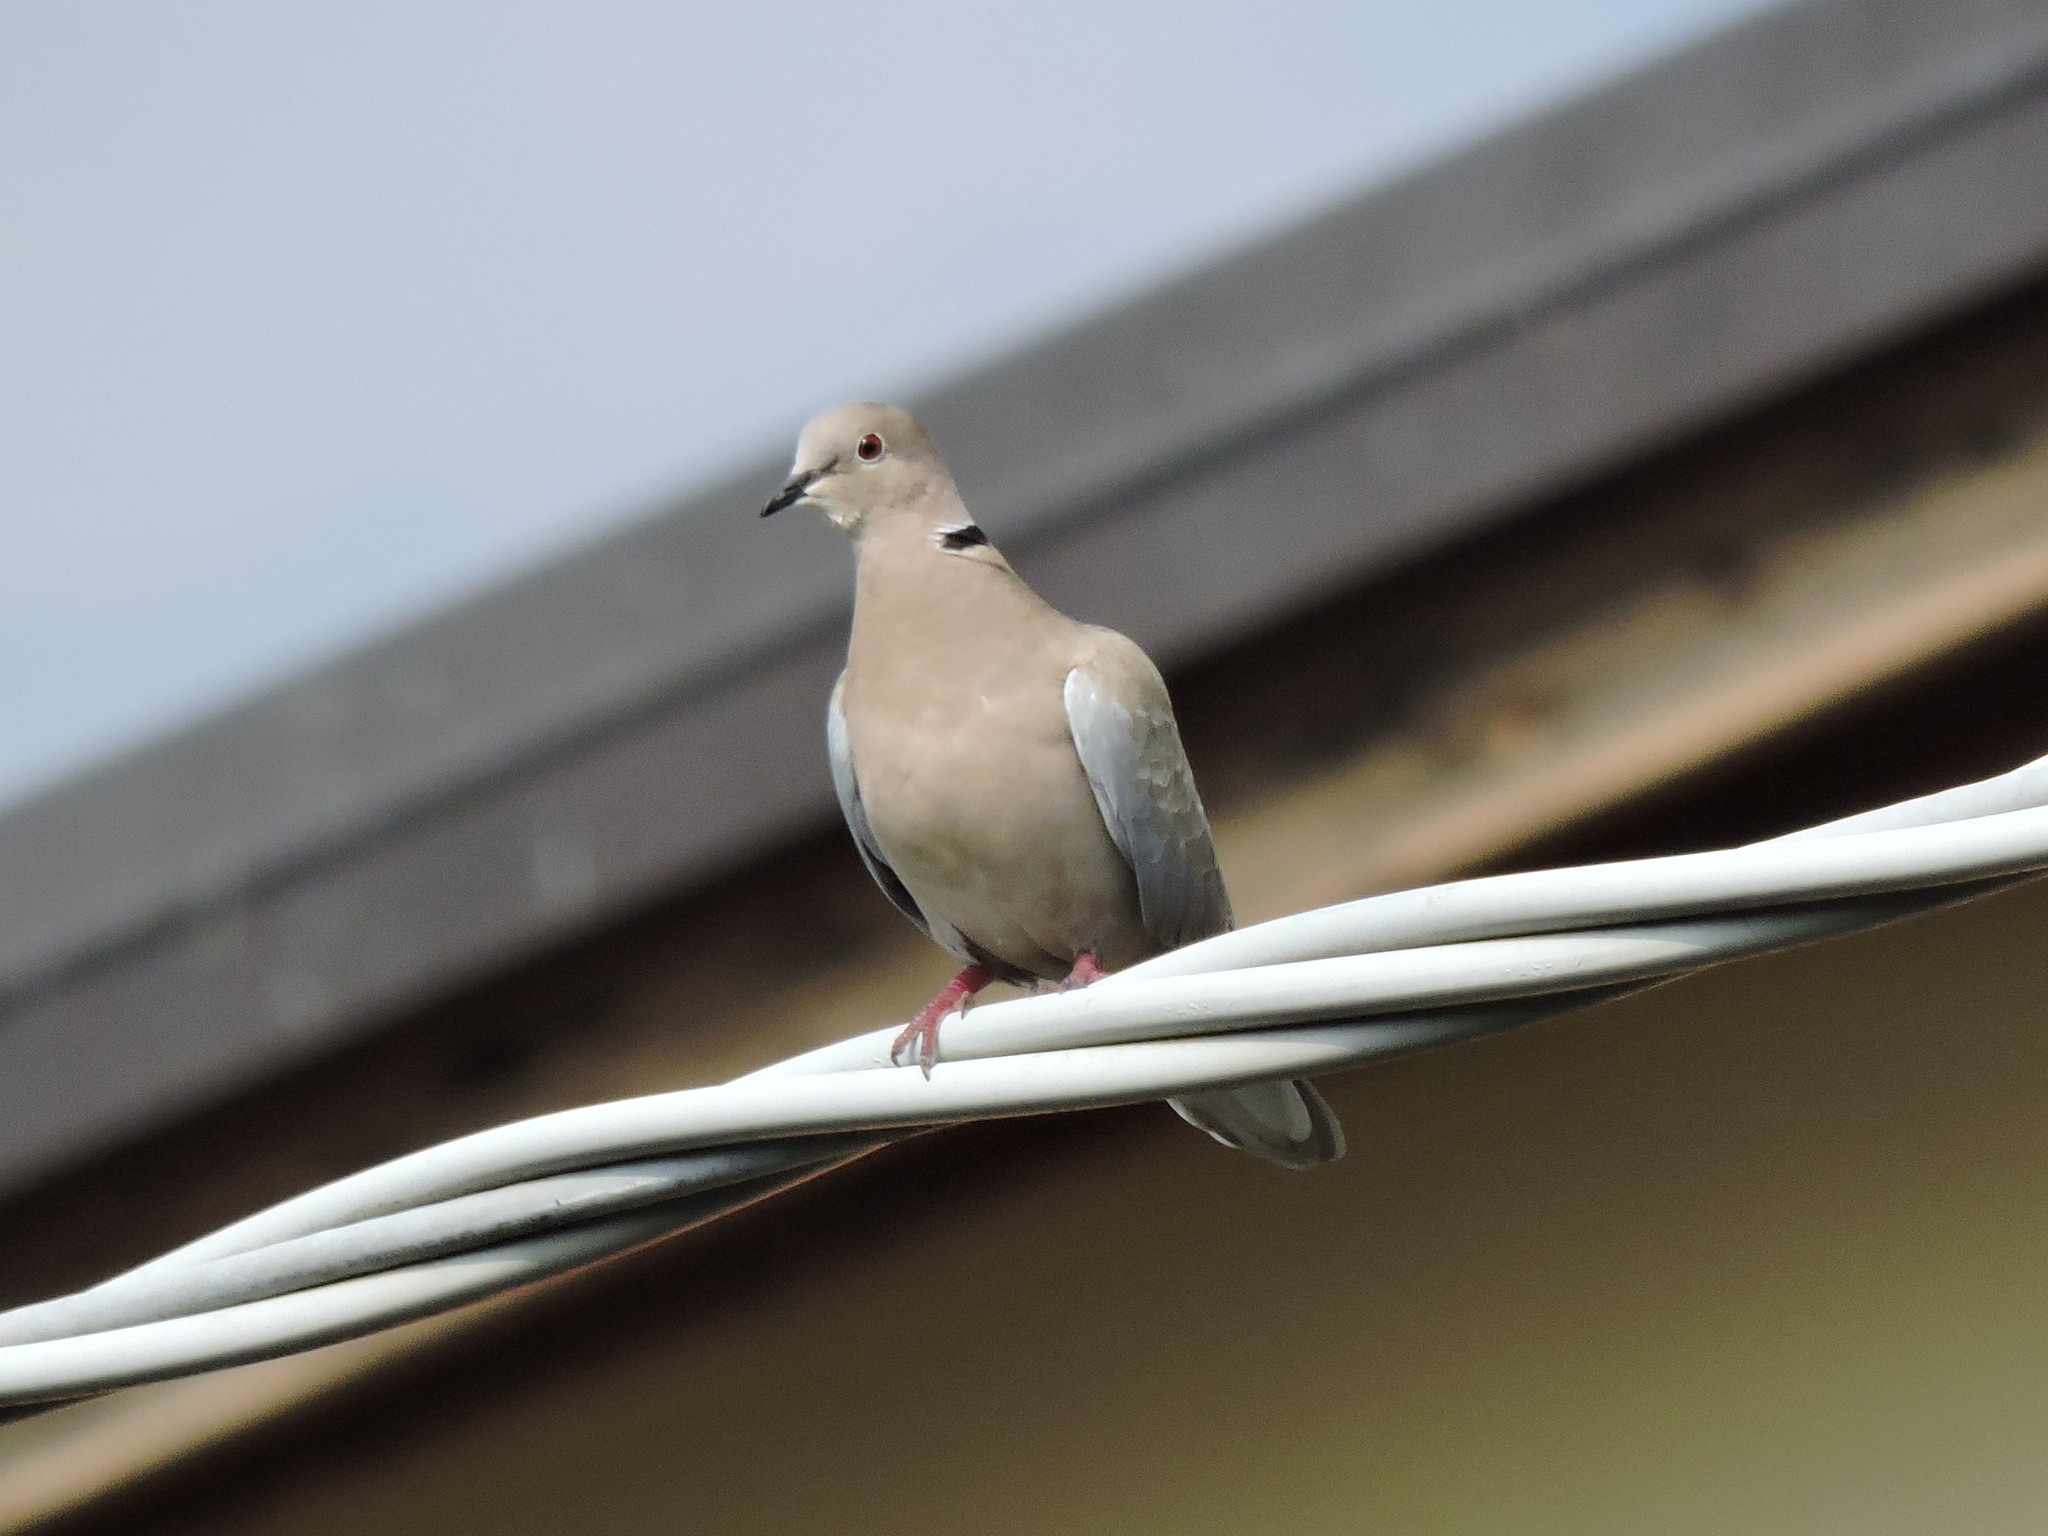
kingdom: Animalia
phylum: Chordata
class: Aves
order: Columbiformes
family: Columbidae
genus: Streptopelia
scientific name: Streptopelia decaocto
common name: Eurasian collared dove
